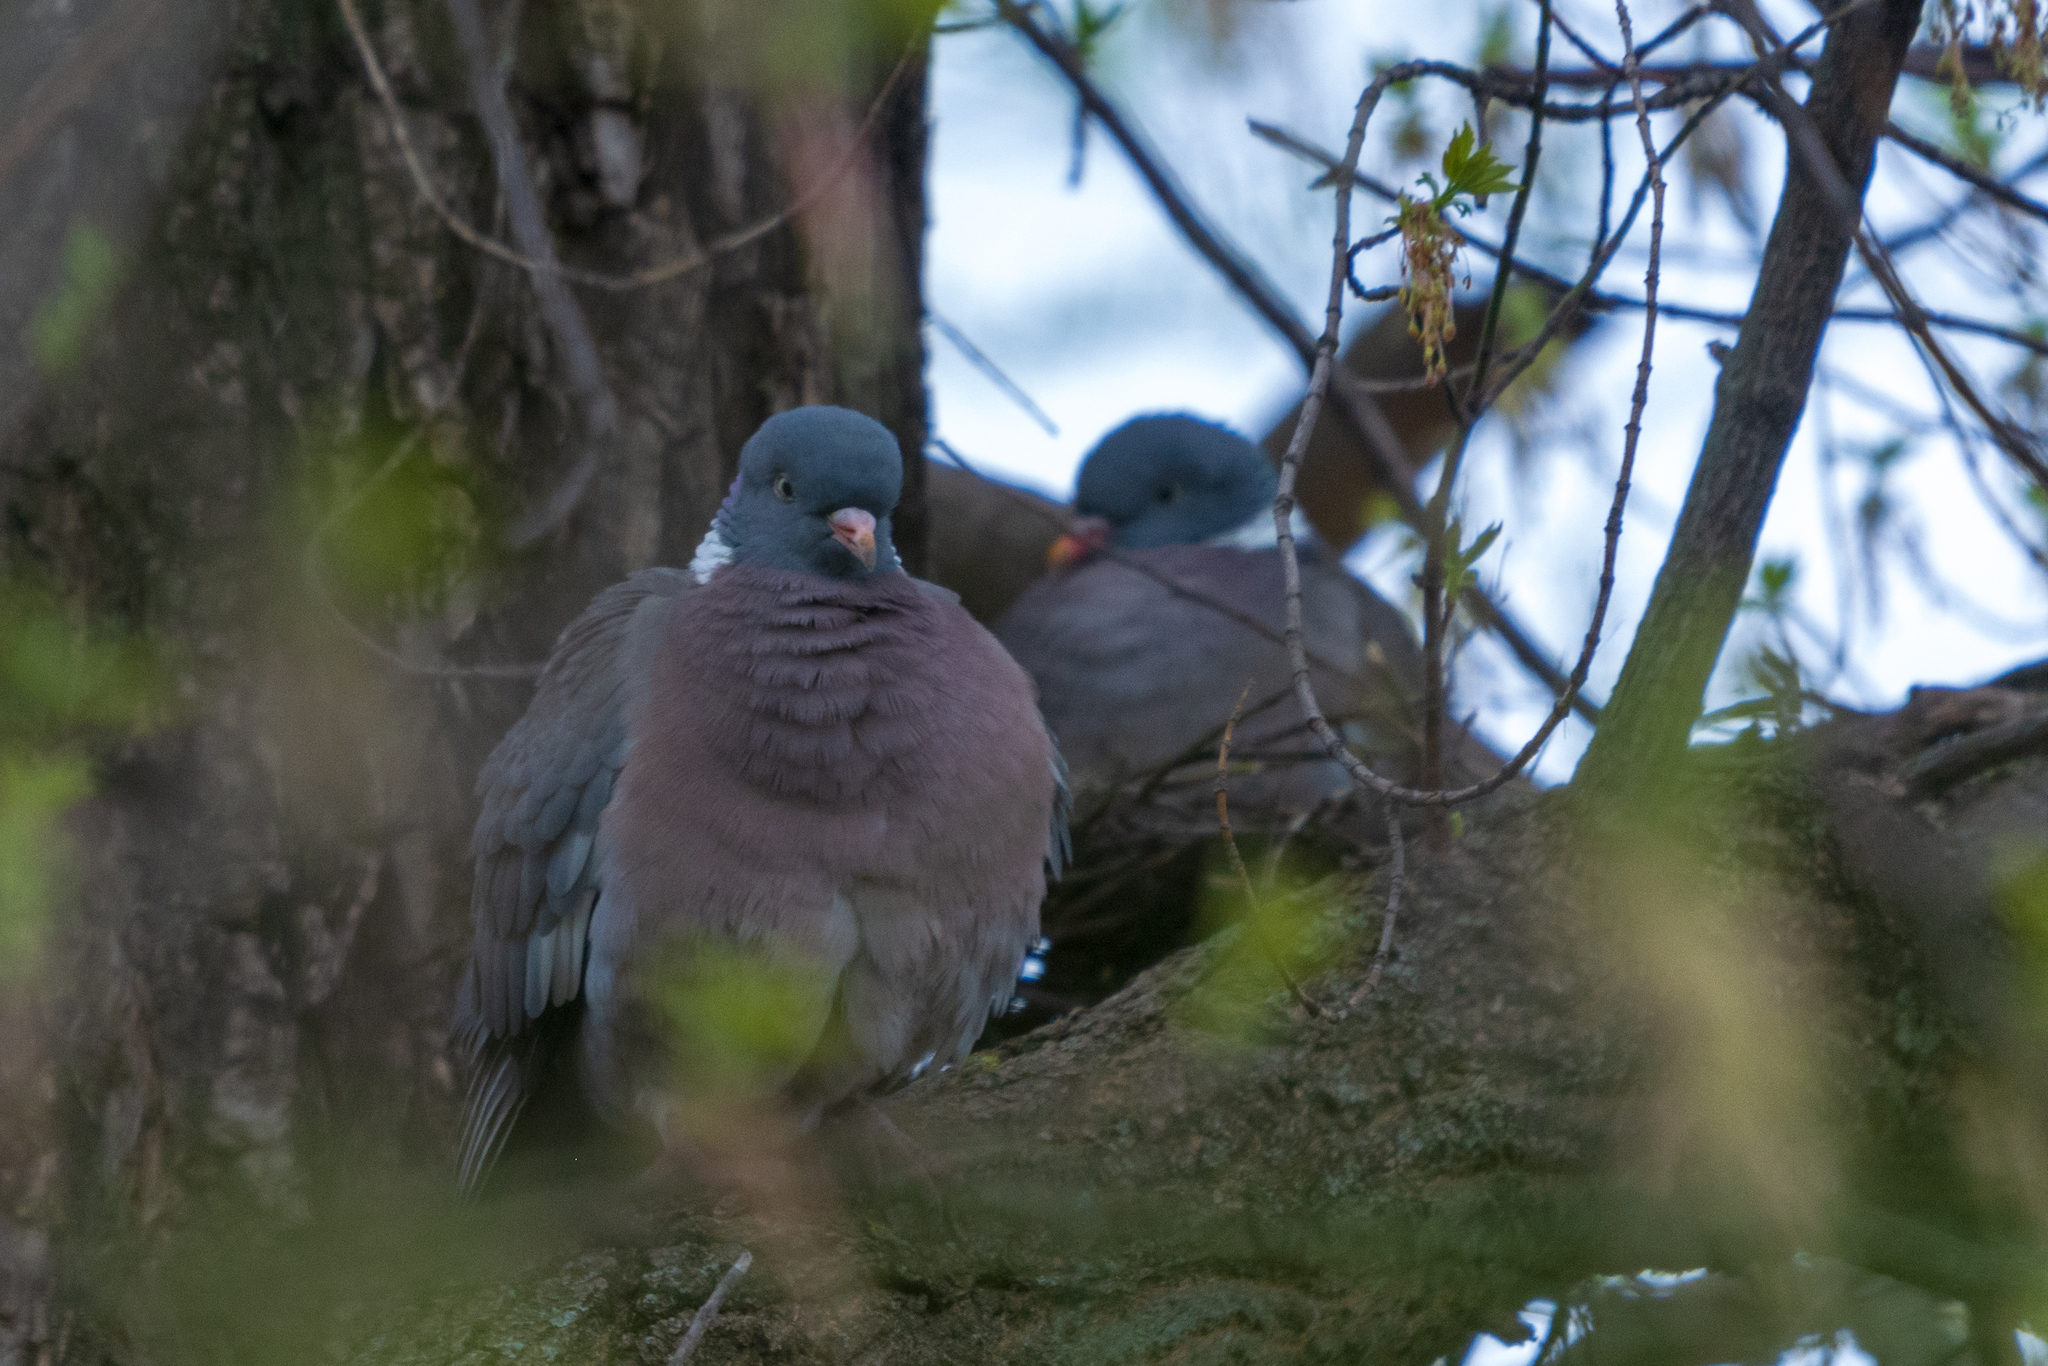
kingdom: Animalia
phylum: Chordata
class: Aves
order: Columbiformes
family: Columbidae
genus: Columba
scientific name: Columba palumbus
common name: Common wood pigeon
